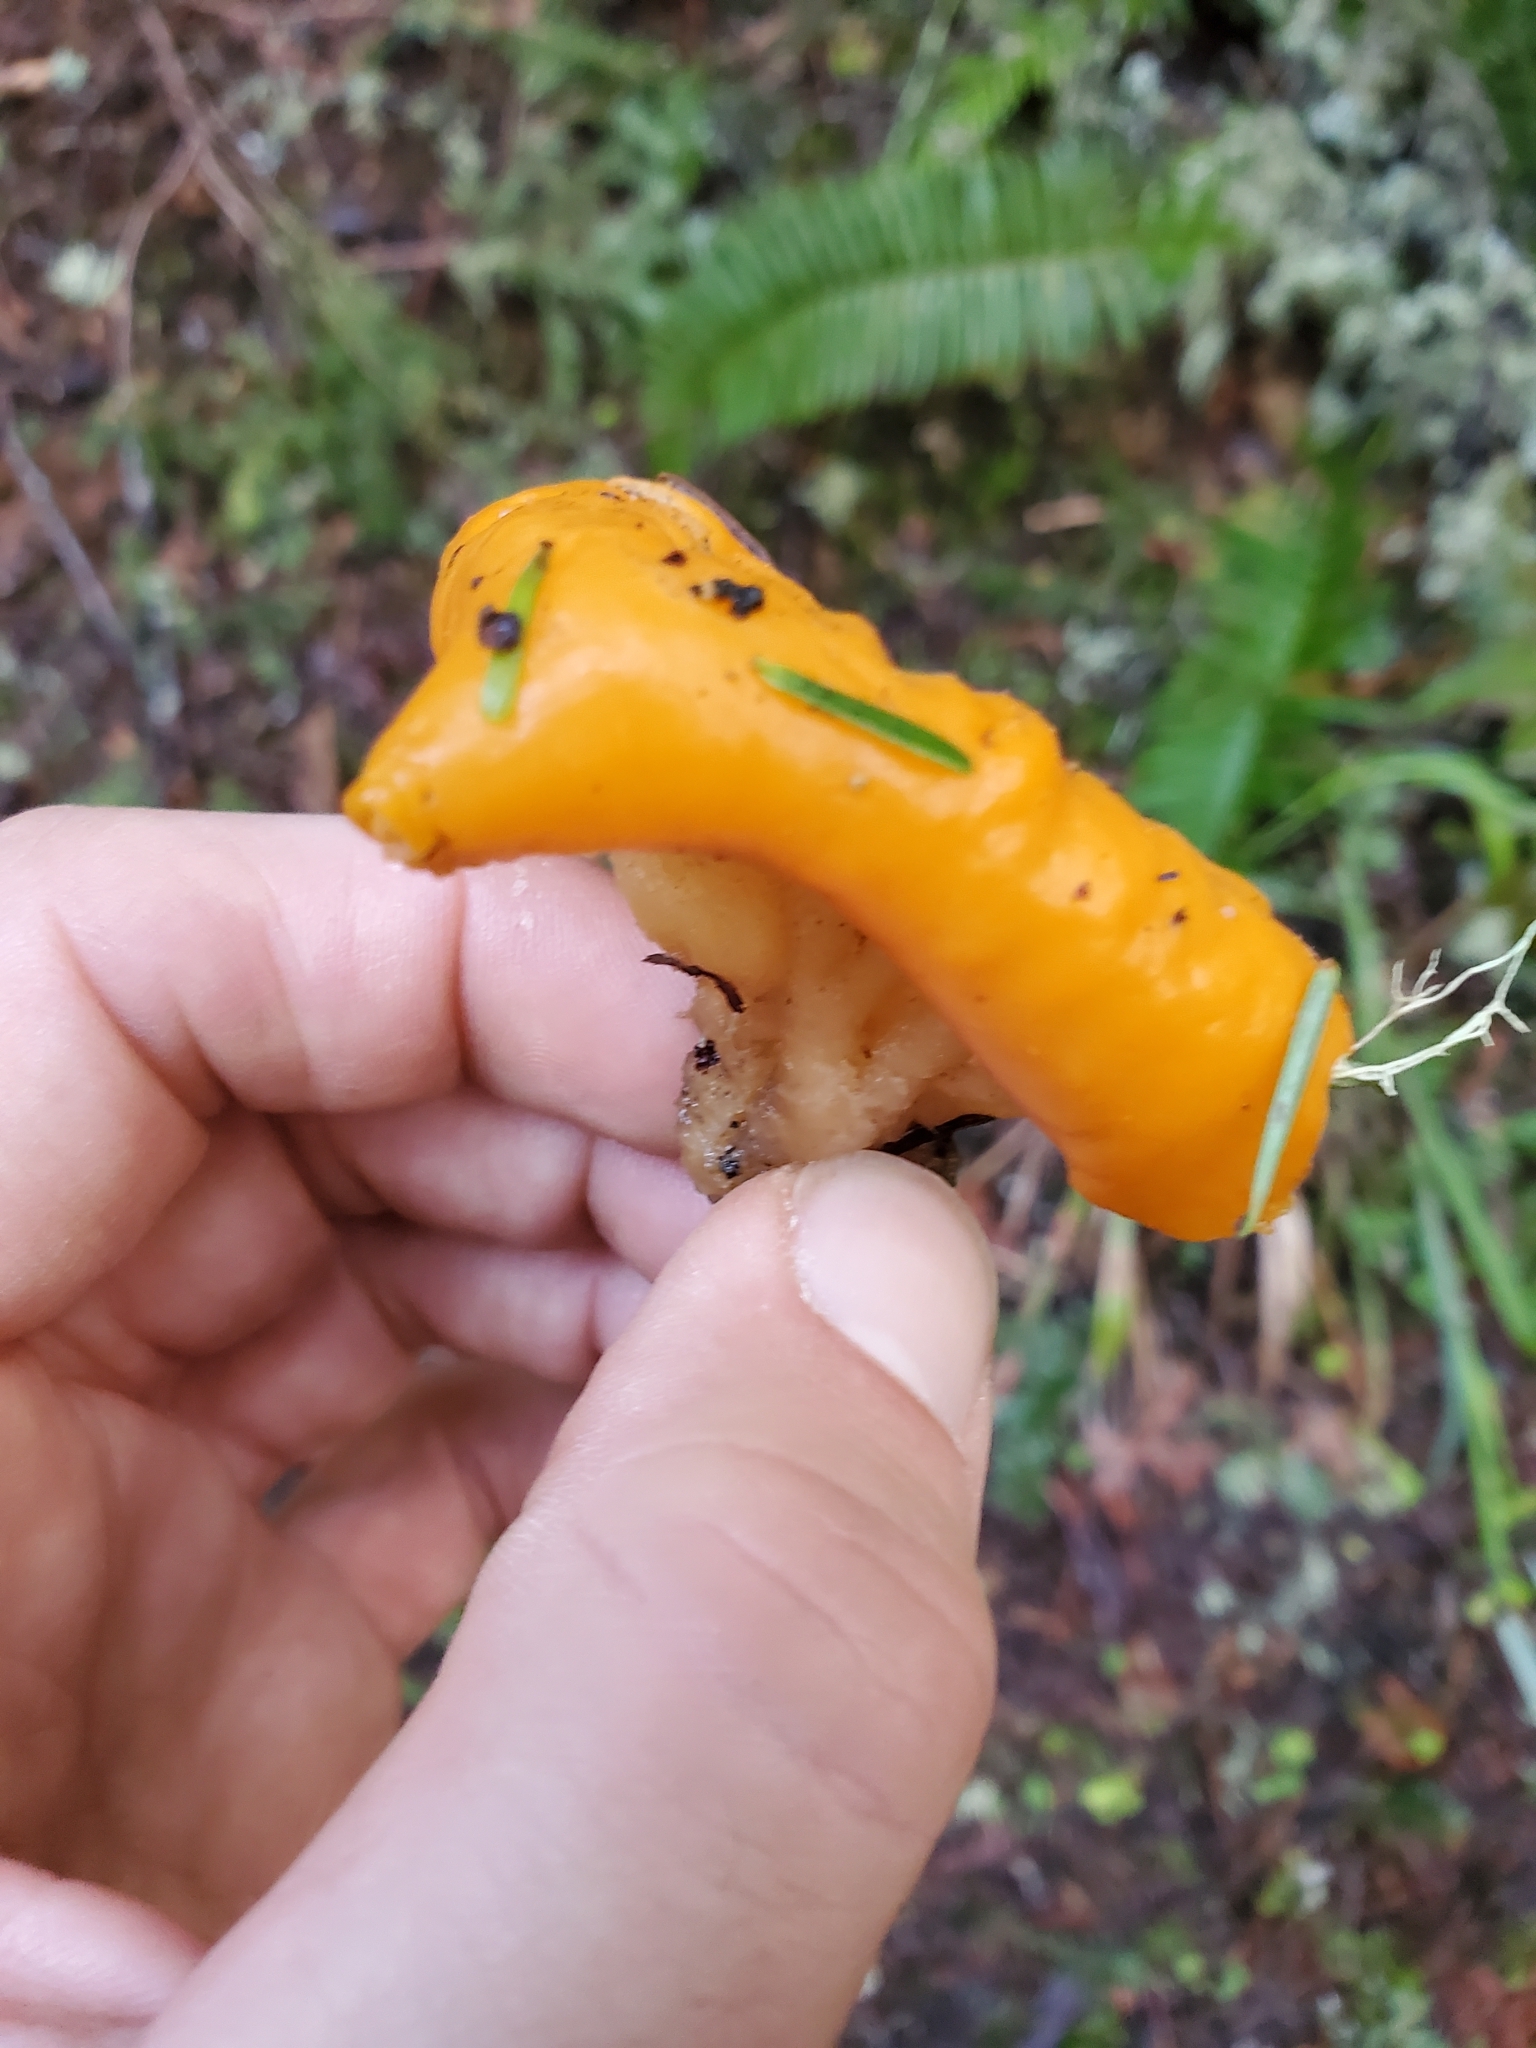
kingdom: Fungi
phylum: Ascomycota
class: Pezizomycetes
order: Pezizales
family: Pyronemataceae
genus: Sowerbyella
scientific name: Sowerbyella rhenana
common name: Stalked orange peel fungus
